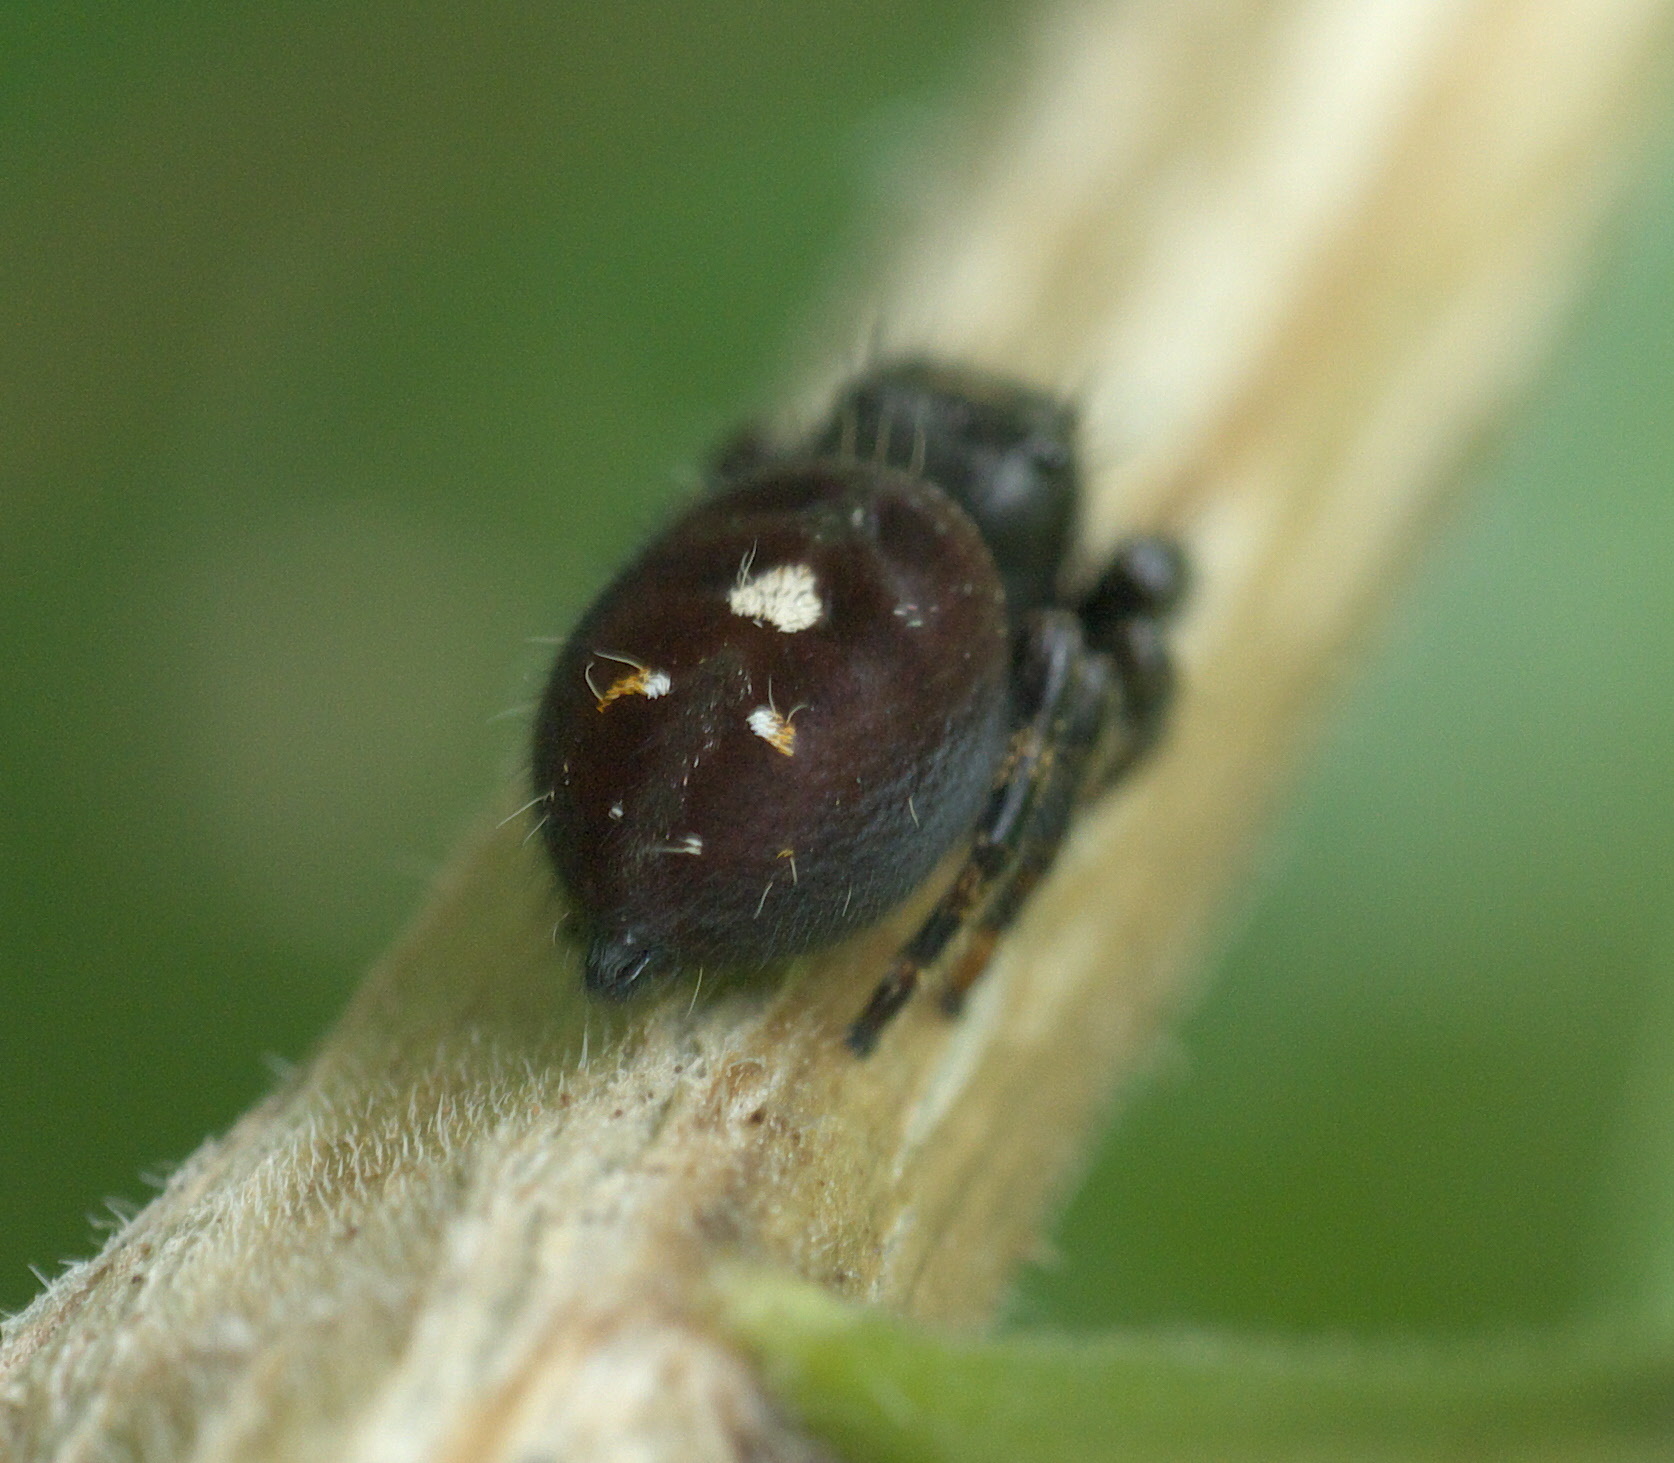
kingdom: Animalia
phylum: Arthropoda
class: Arachnida
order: Araneae
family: Salticidae
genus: Phidippus
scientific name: Phidippus audax
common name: Bold jumper
